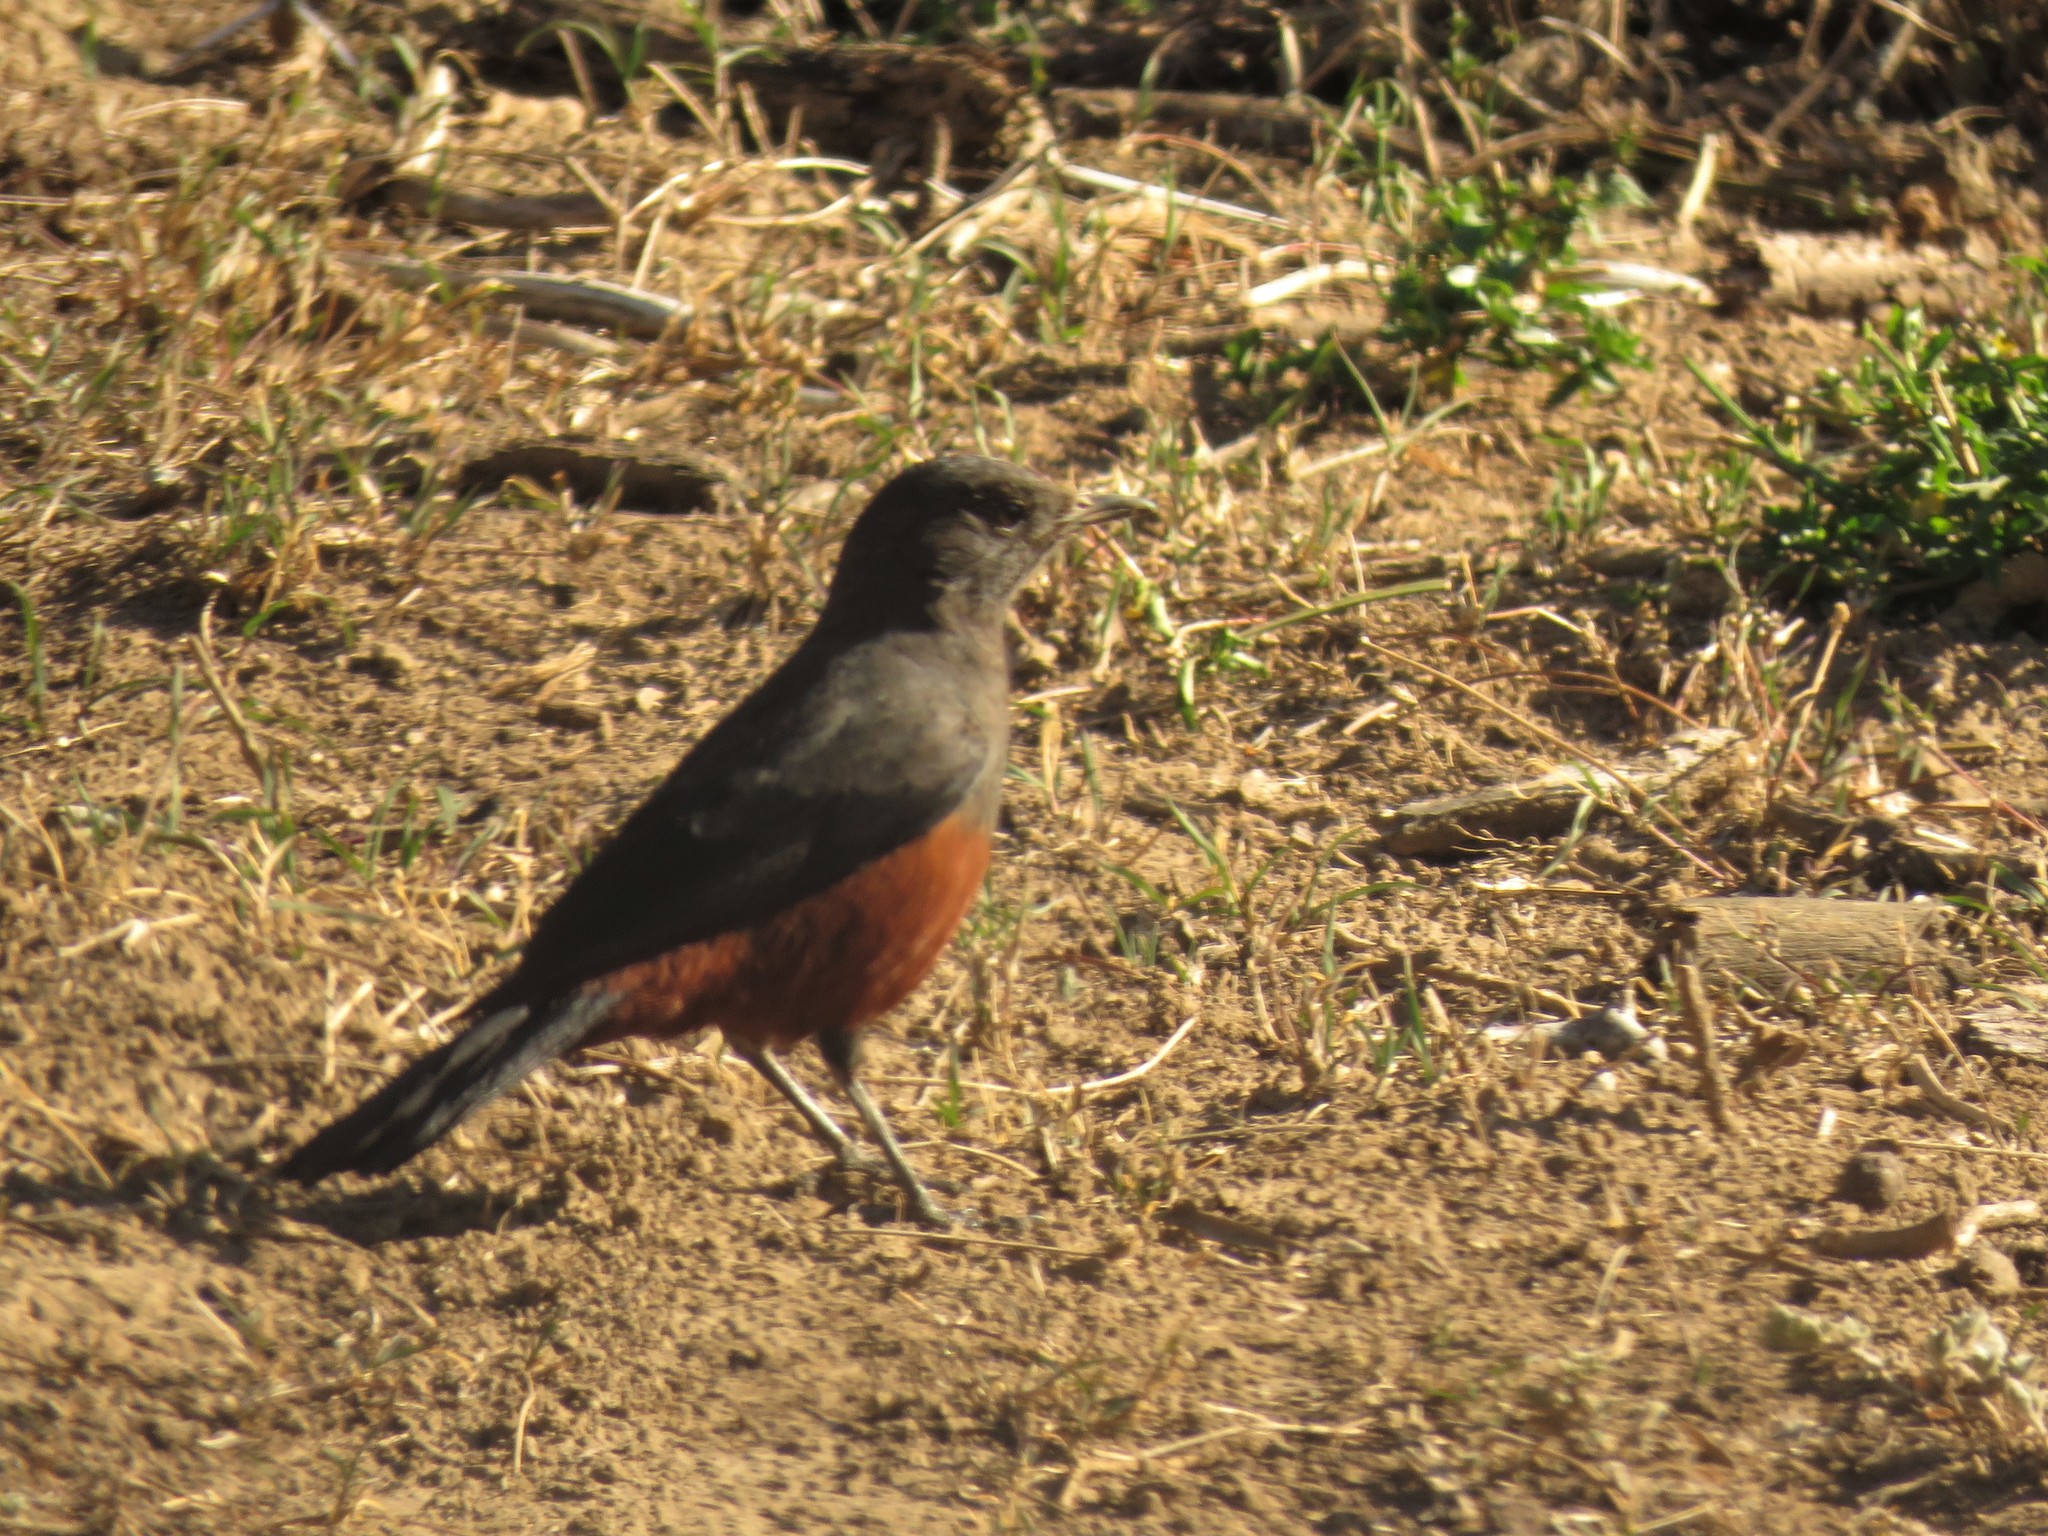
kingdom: Animalia
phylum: Chordata
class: Aves
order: Passeriformes
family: Muscicapidae
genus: Thamnolaea
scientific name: Thamnolaea cinnamomeiventris
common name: Mocking cliff chat
